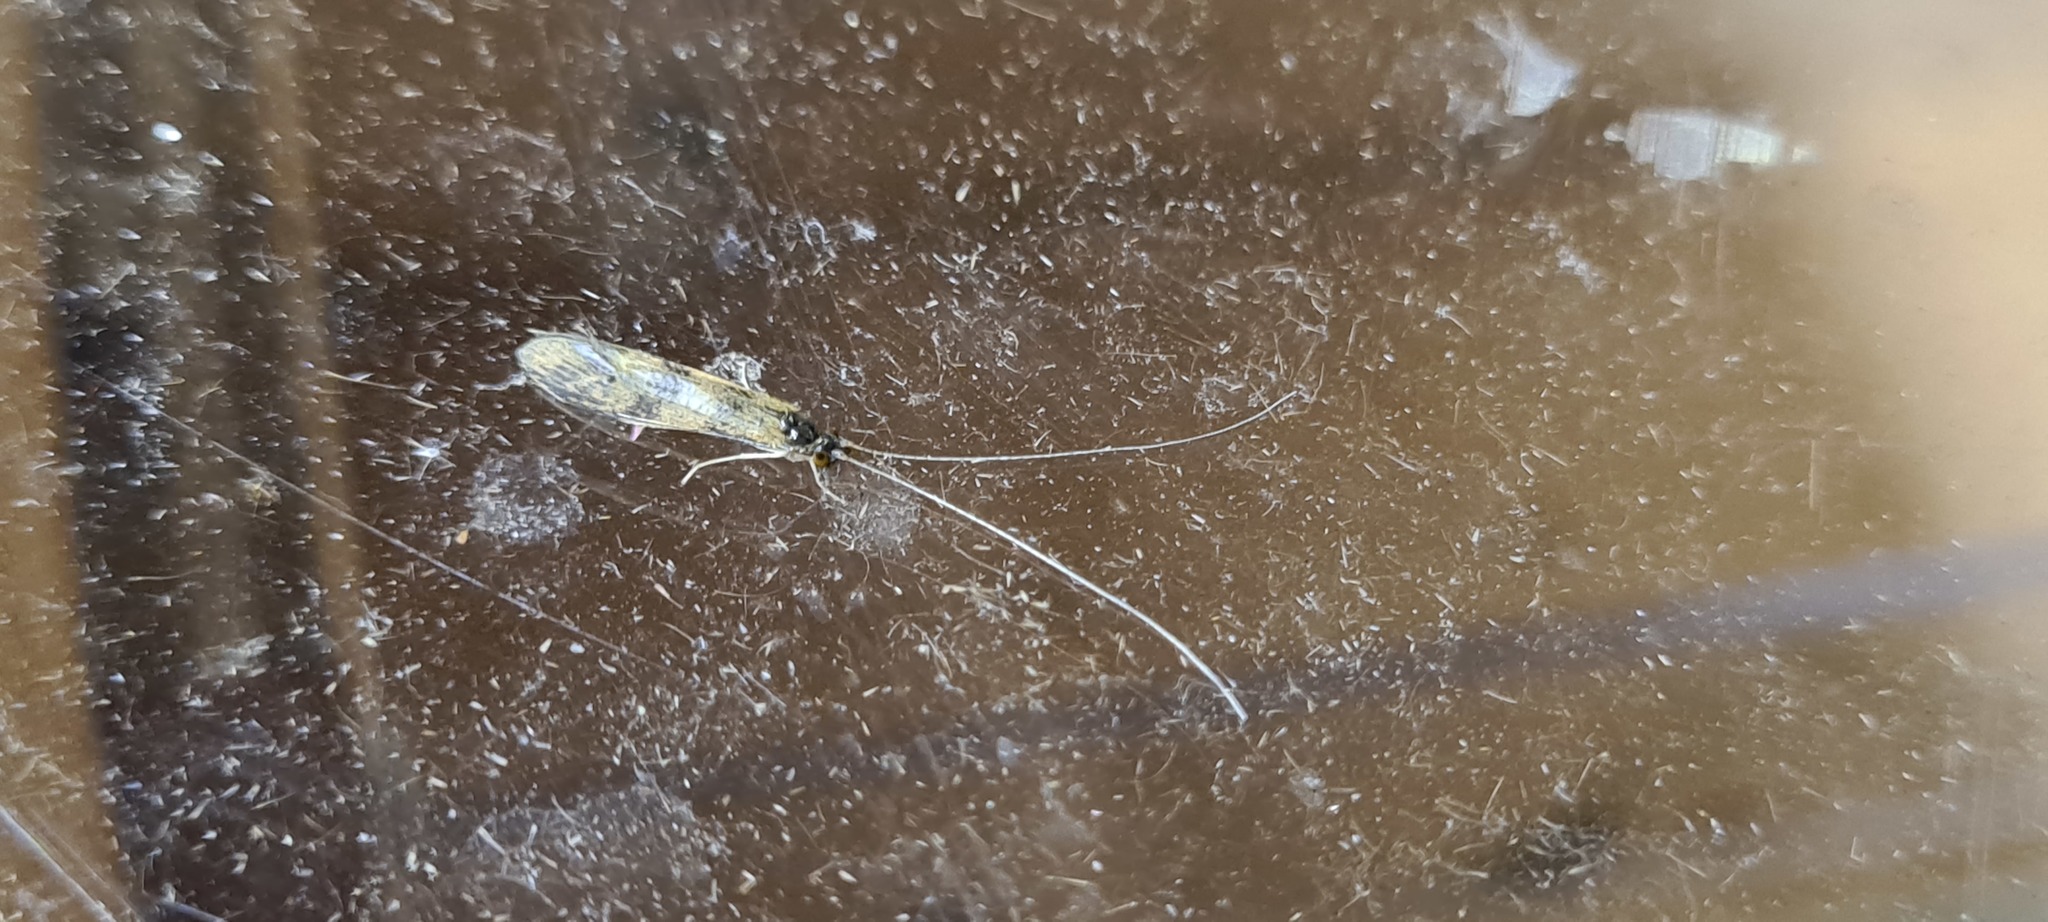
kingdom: Animalia
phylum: Arthropoda
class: Insecta
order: Trichoptera
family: Leptoceridae
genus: Mystacides
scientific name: Mystacides longicornis
